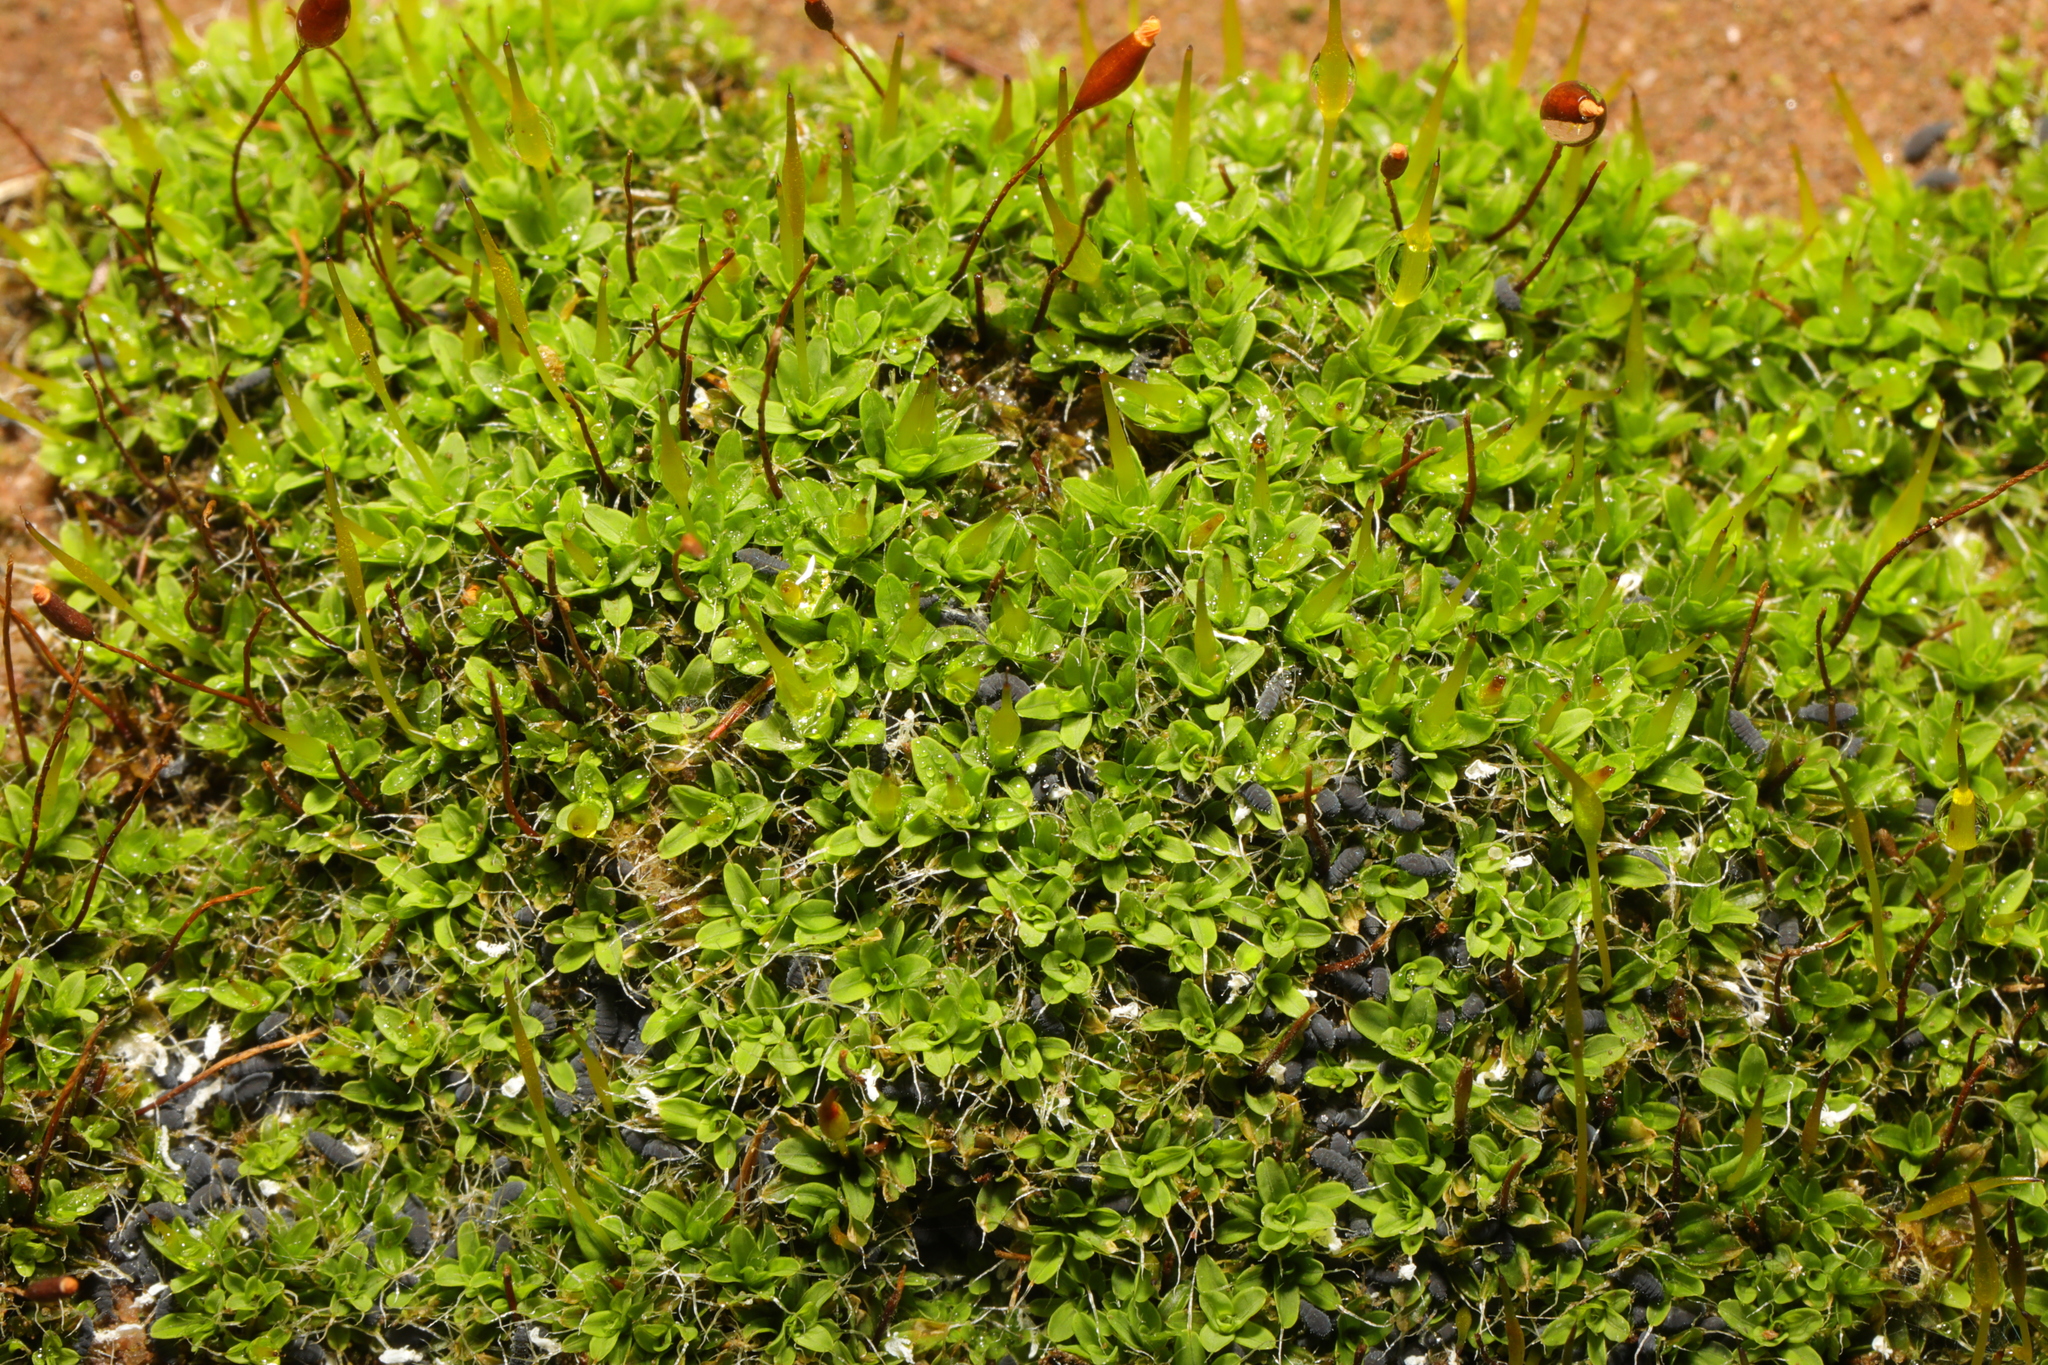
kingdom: Plantae
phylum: Bryophyta
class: Bryopsida
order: Pottiales
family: Pottiaceae
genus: Tortula
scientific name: Tortula muralis
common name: Wall screw-moss
